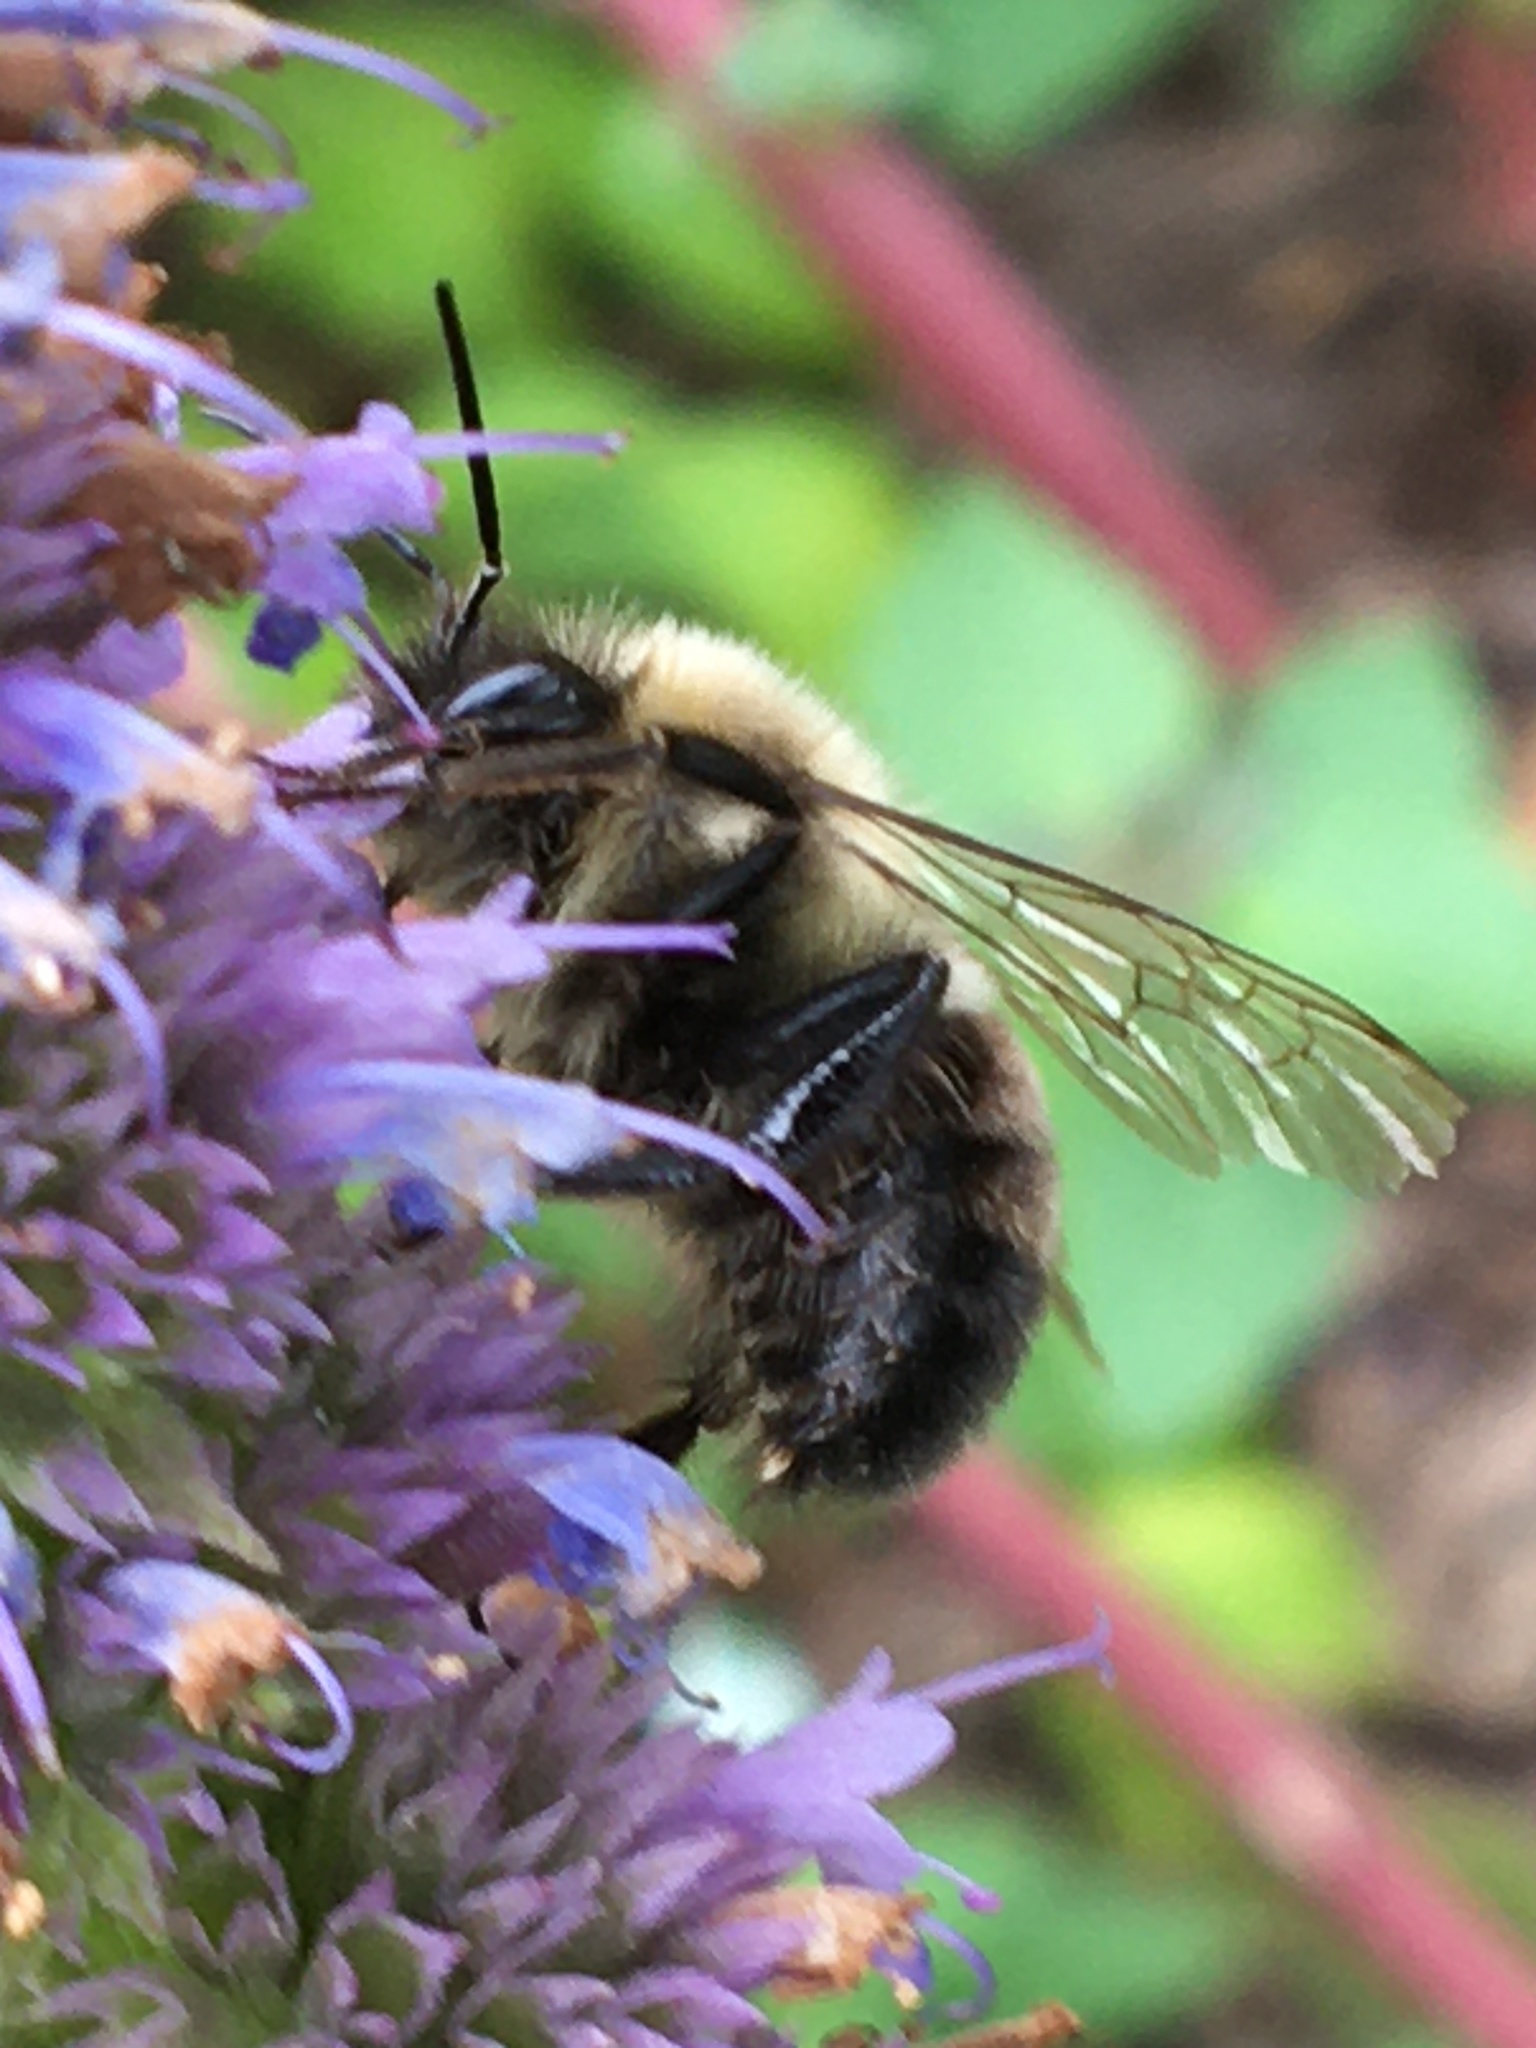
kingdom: Animalia
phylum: Arthropoda
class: Insecta
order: Hymenoptera
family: Apidae
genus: Bombus
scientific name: Bombus impatiens
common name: Common eastern bumble bee
